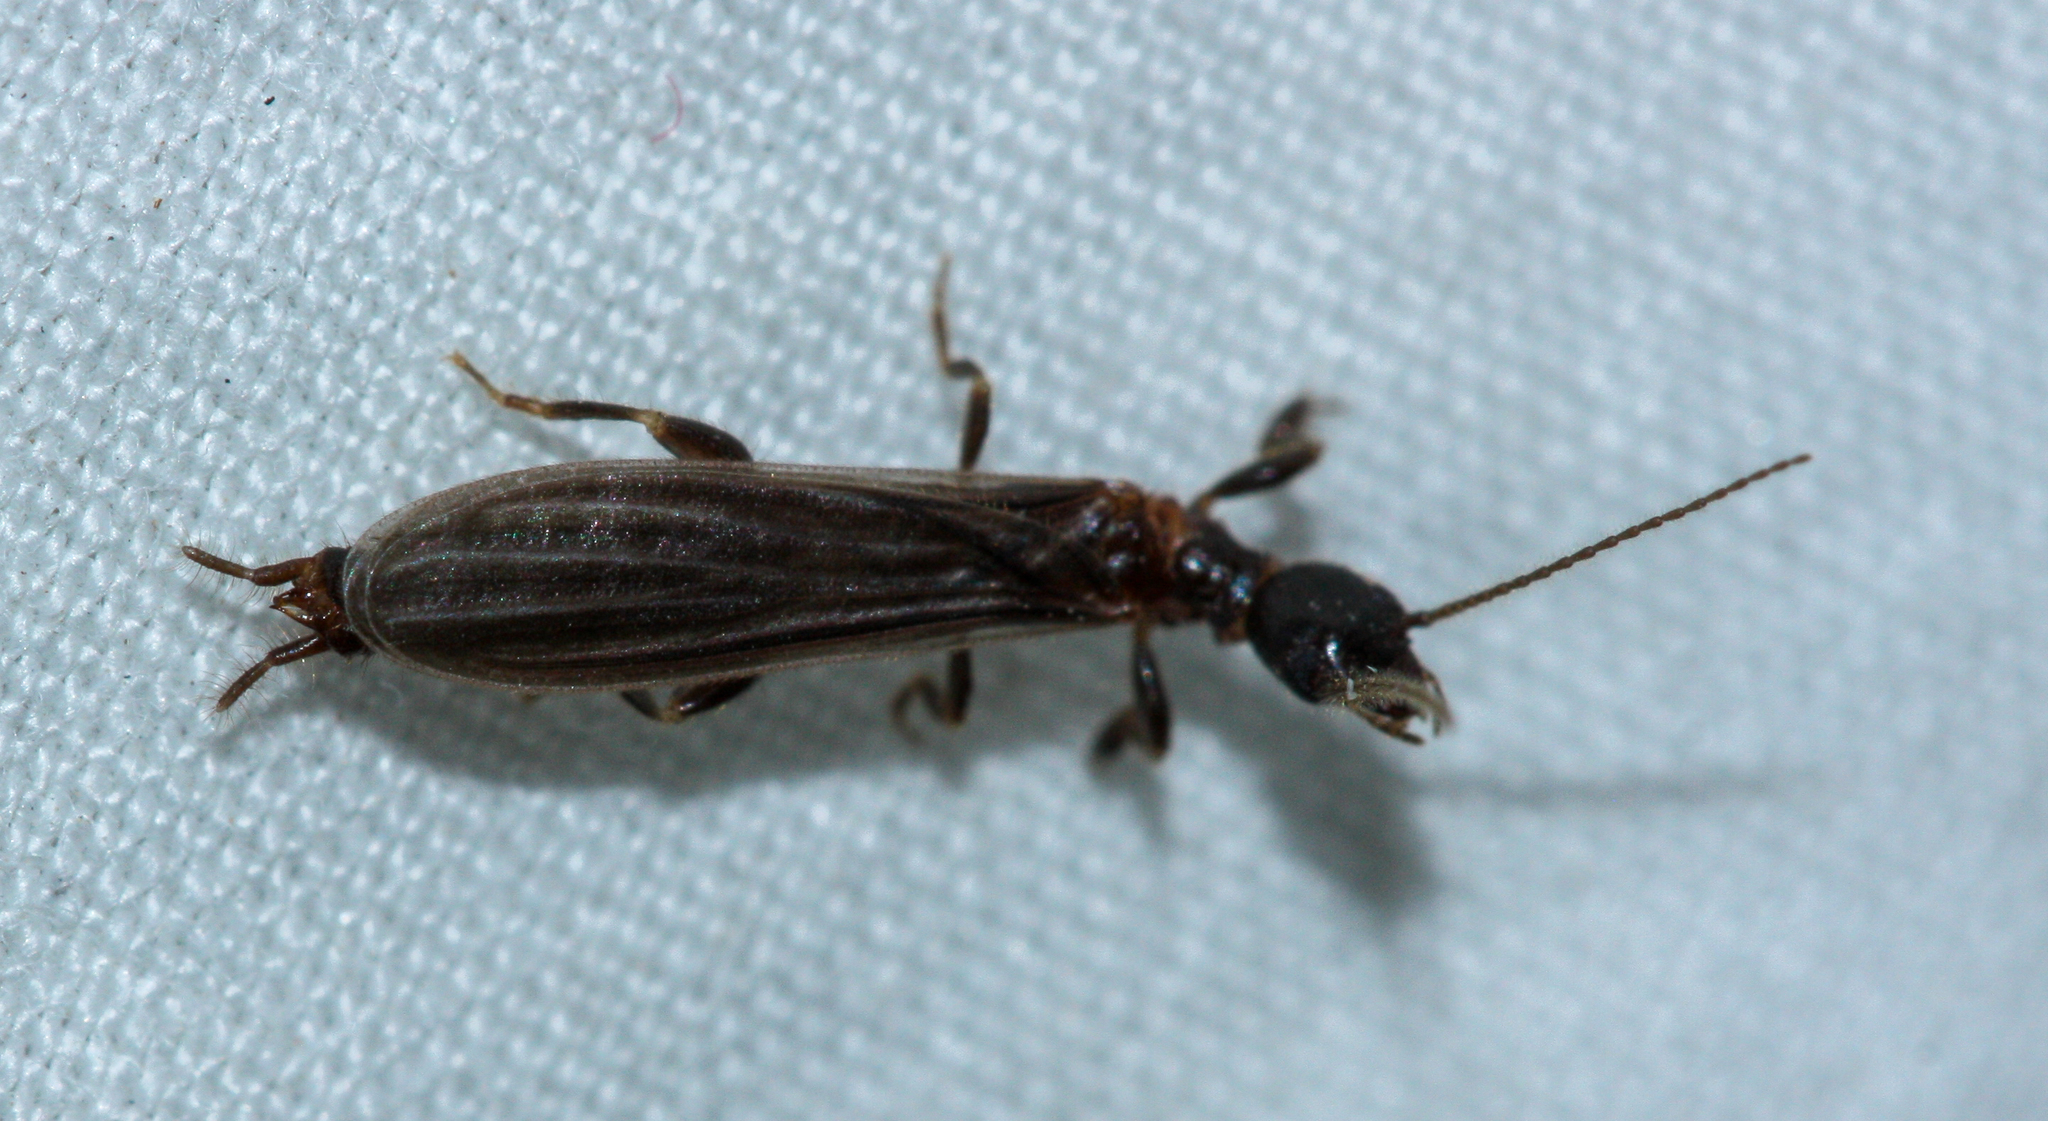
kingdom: Animalia
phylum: Arthropoda
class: Insecta
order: Embioptera
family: Oligotomidae
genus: Oligotoma
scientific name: Oligotoma nigra
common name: Black webspinner
